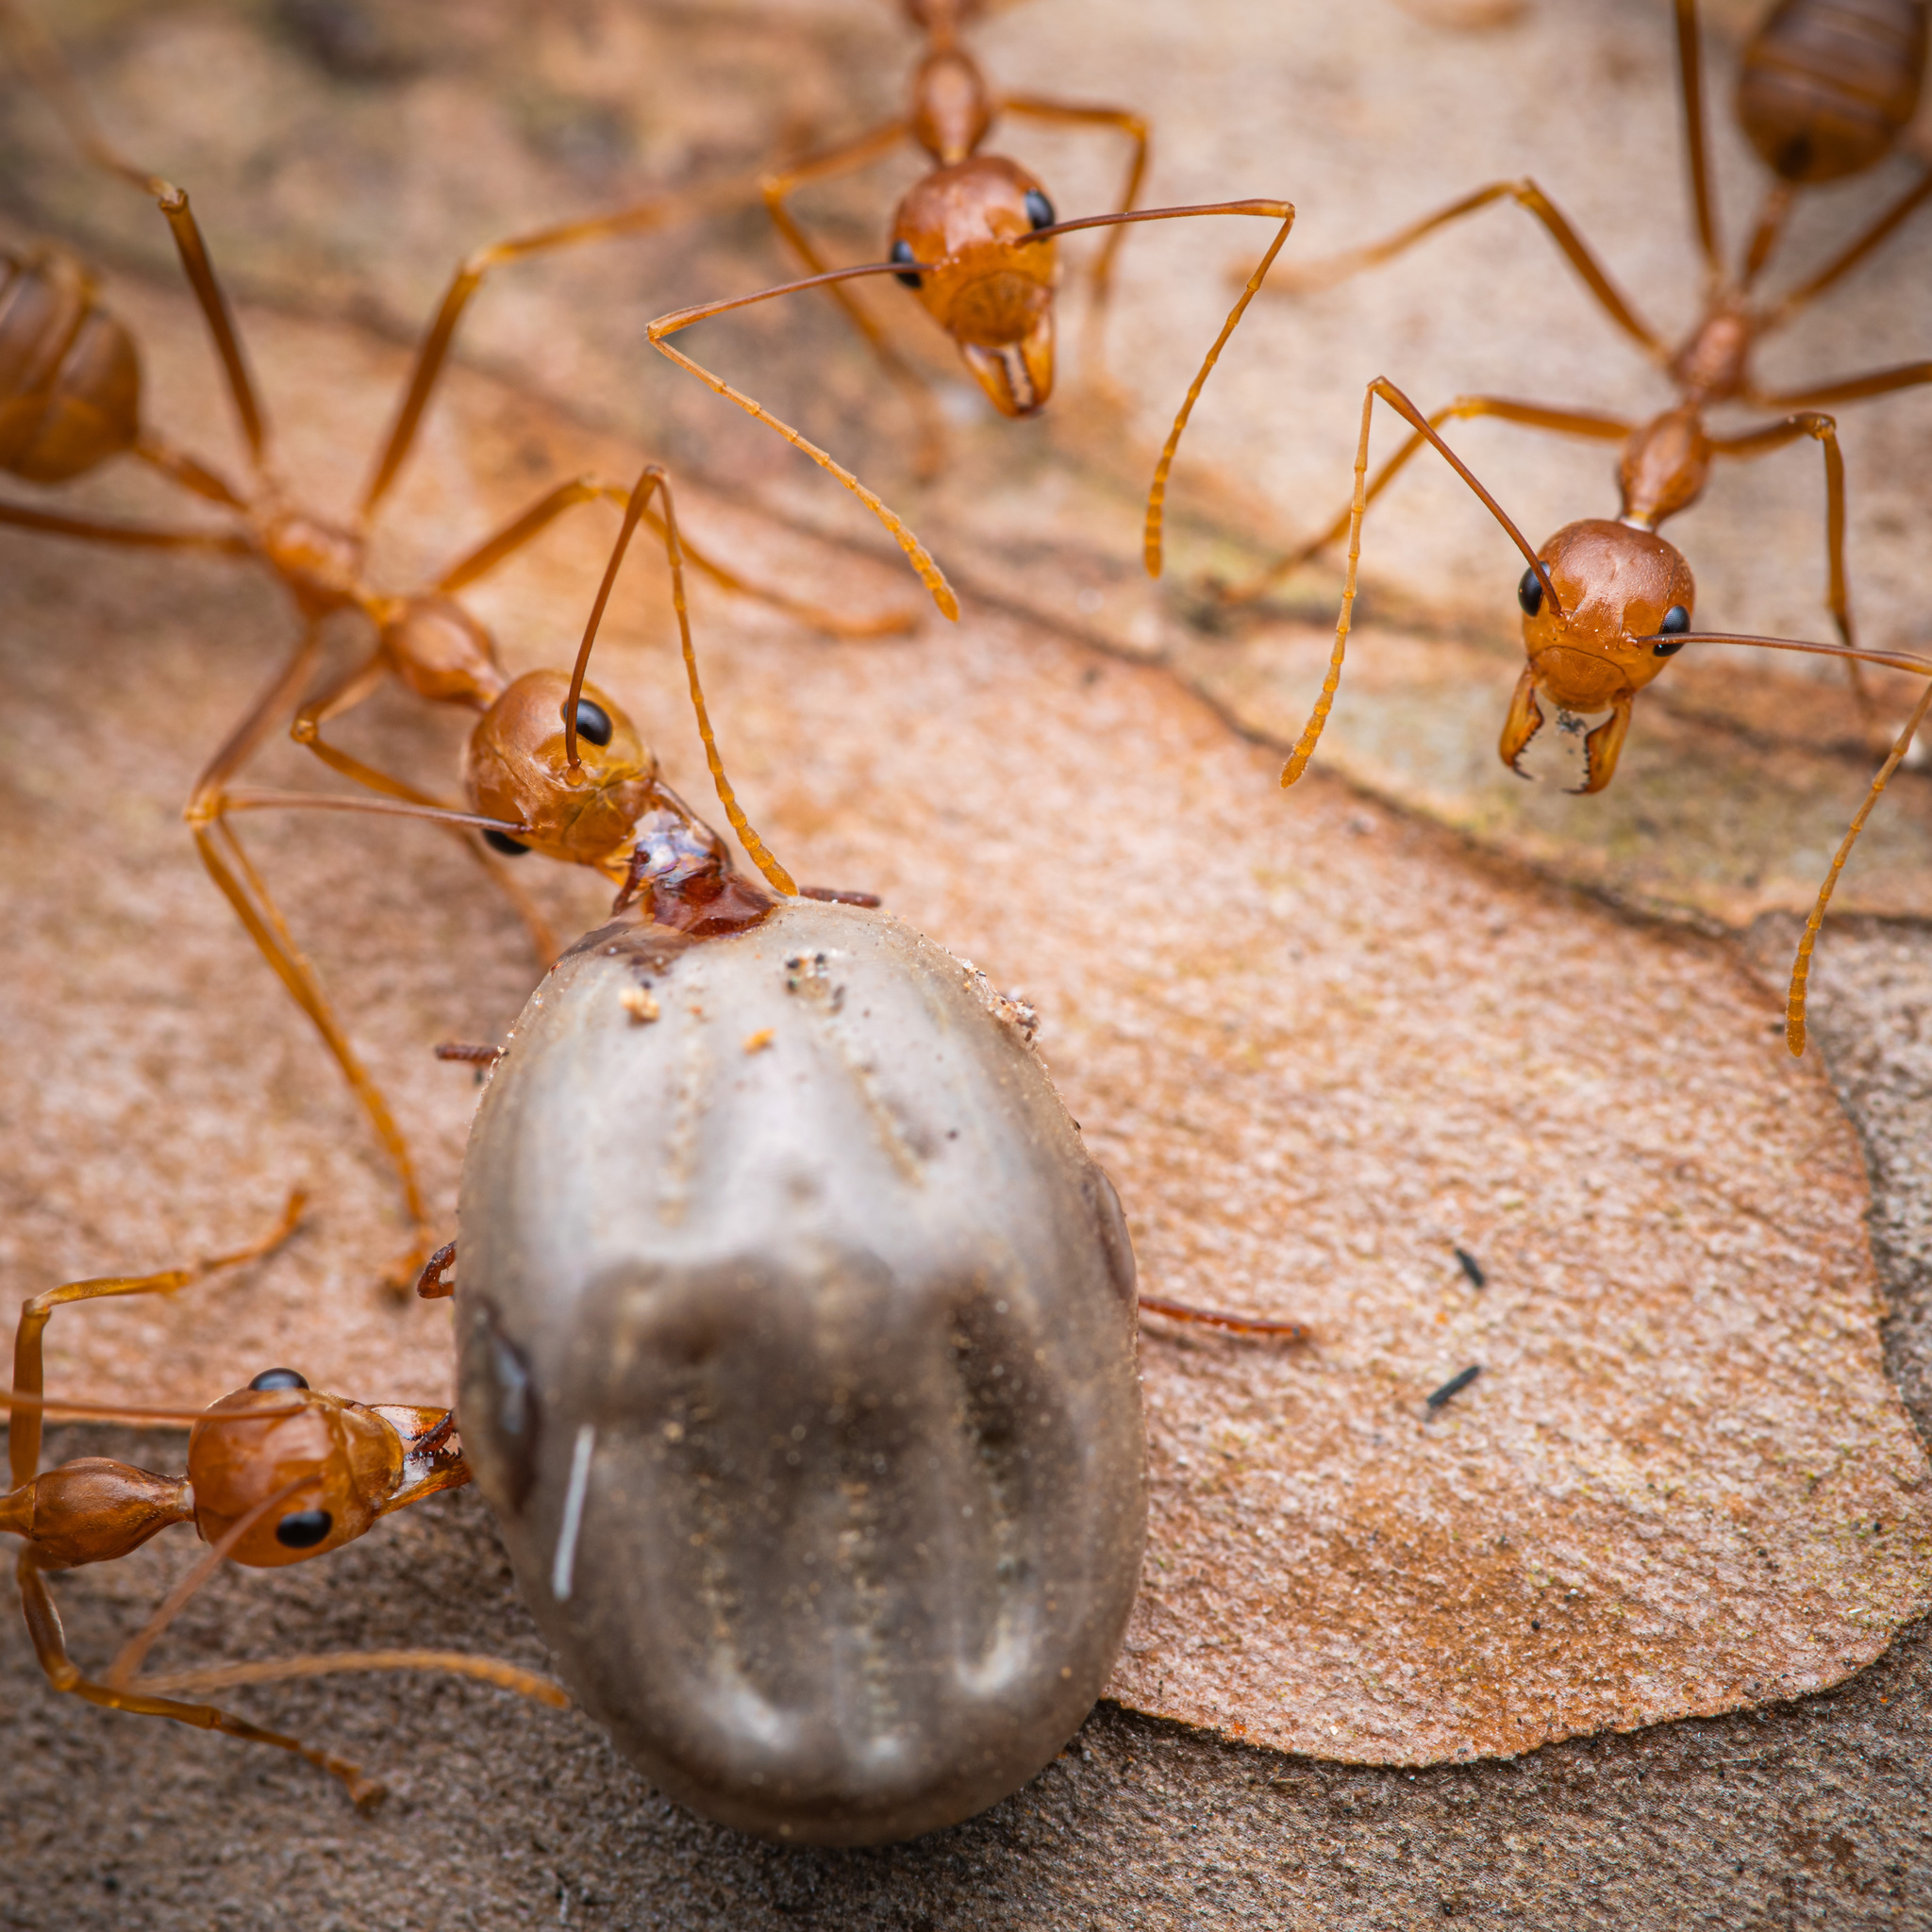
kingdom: Animalia
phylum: Arthropoda
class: Insecta
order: Hymenoptera
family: Formicidae
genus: Oecophylla
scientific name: Oecophylla smaragdina
